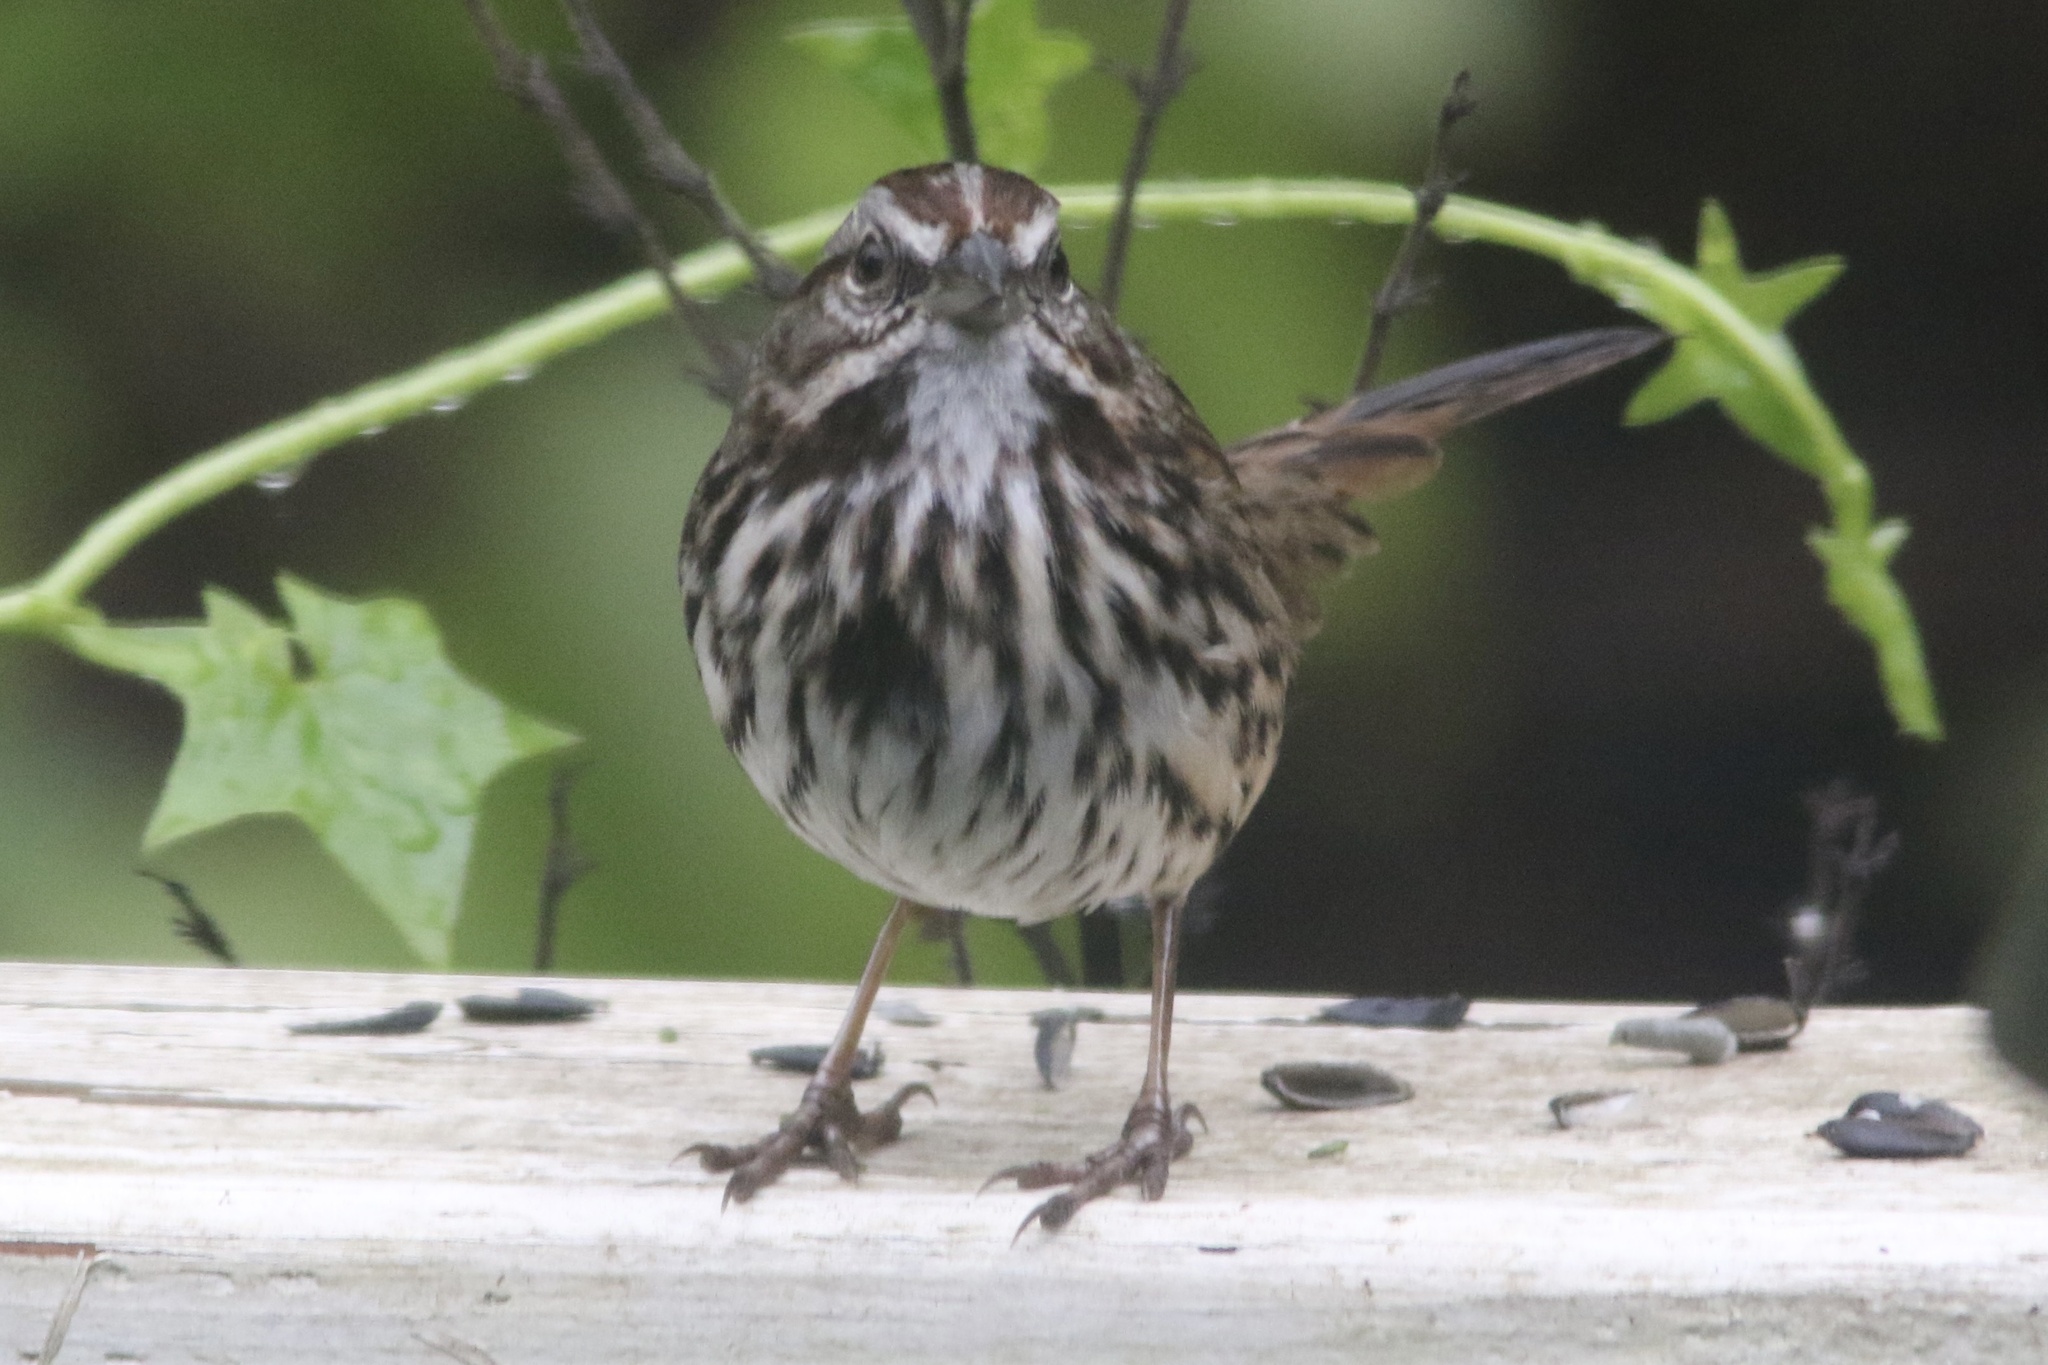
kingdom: Animalia
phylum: Chordata
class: Aves
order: Passeriformes
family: Passerellidae
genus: Melospiza
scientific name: Melospiza melodia
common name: Song sparrow
